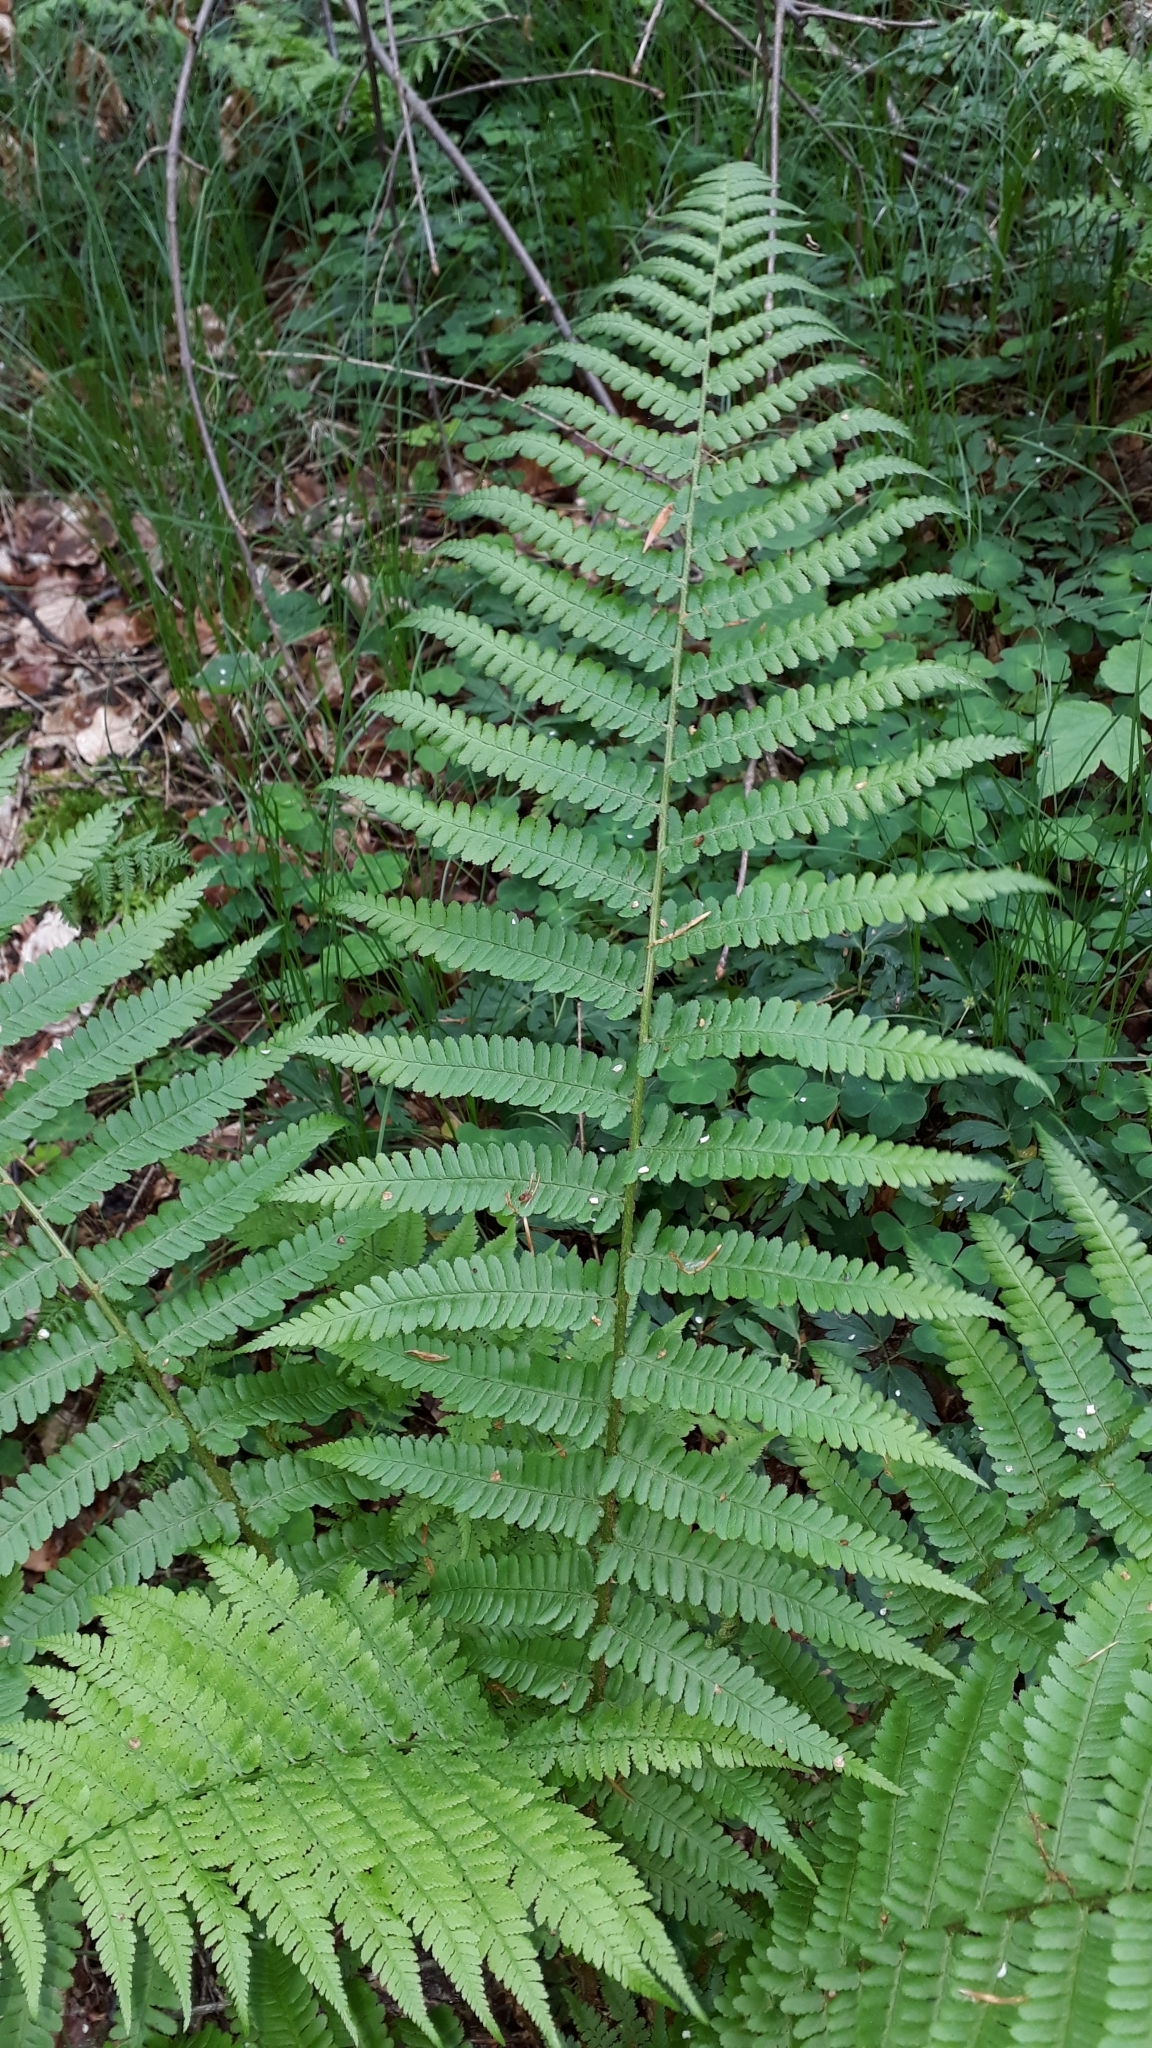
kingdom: Plantae
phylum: Tracheophyta
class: Polypodiopsida
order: Polypodiales
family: Dryopteridaceae
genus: Dryopteris
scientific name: Dryopteris filix-mas
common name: Male fern
